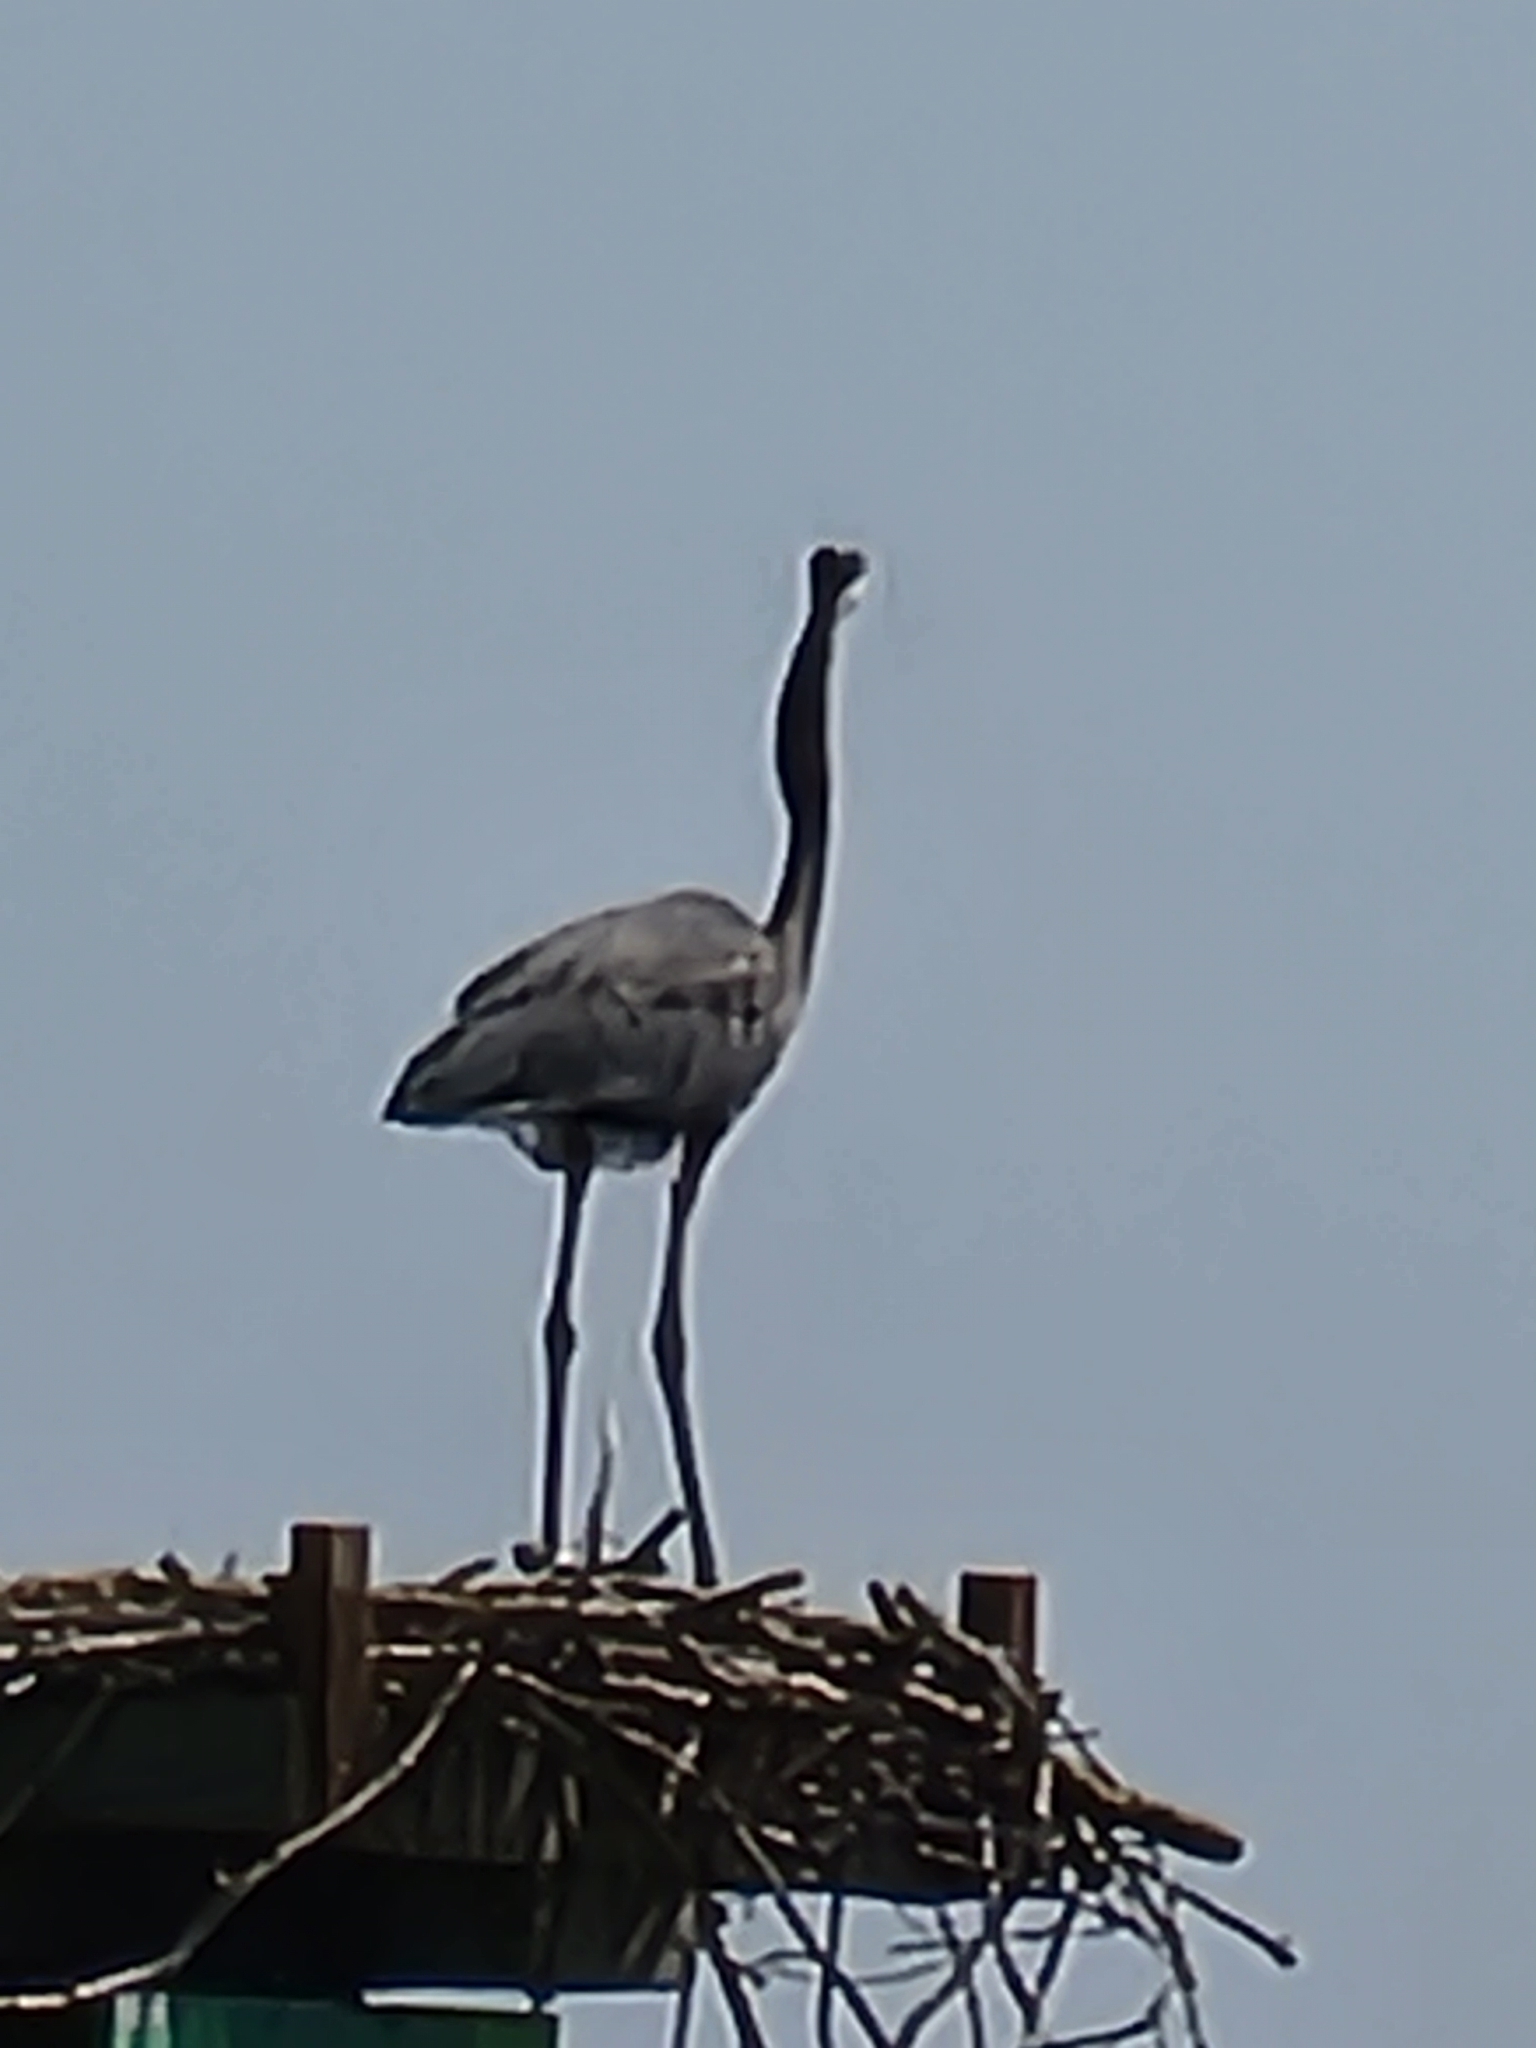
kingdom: Animalia
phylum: Chordata
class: Aves
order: Pelecaniformes
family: Ardeidae
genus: Ardea
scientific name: Ardea herodias
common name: Great blue heron
